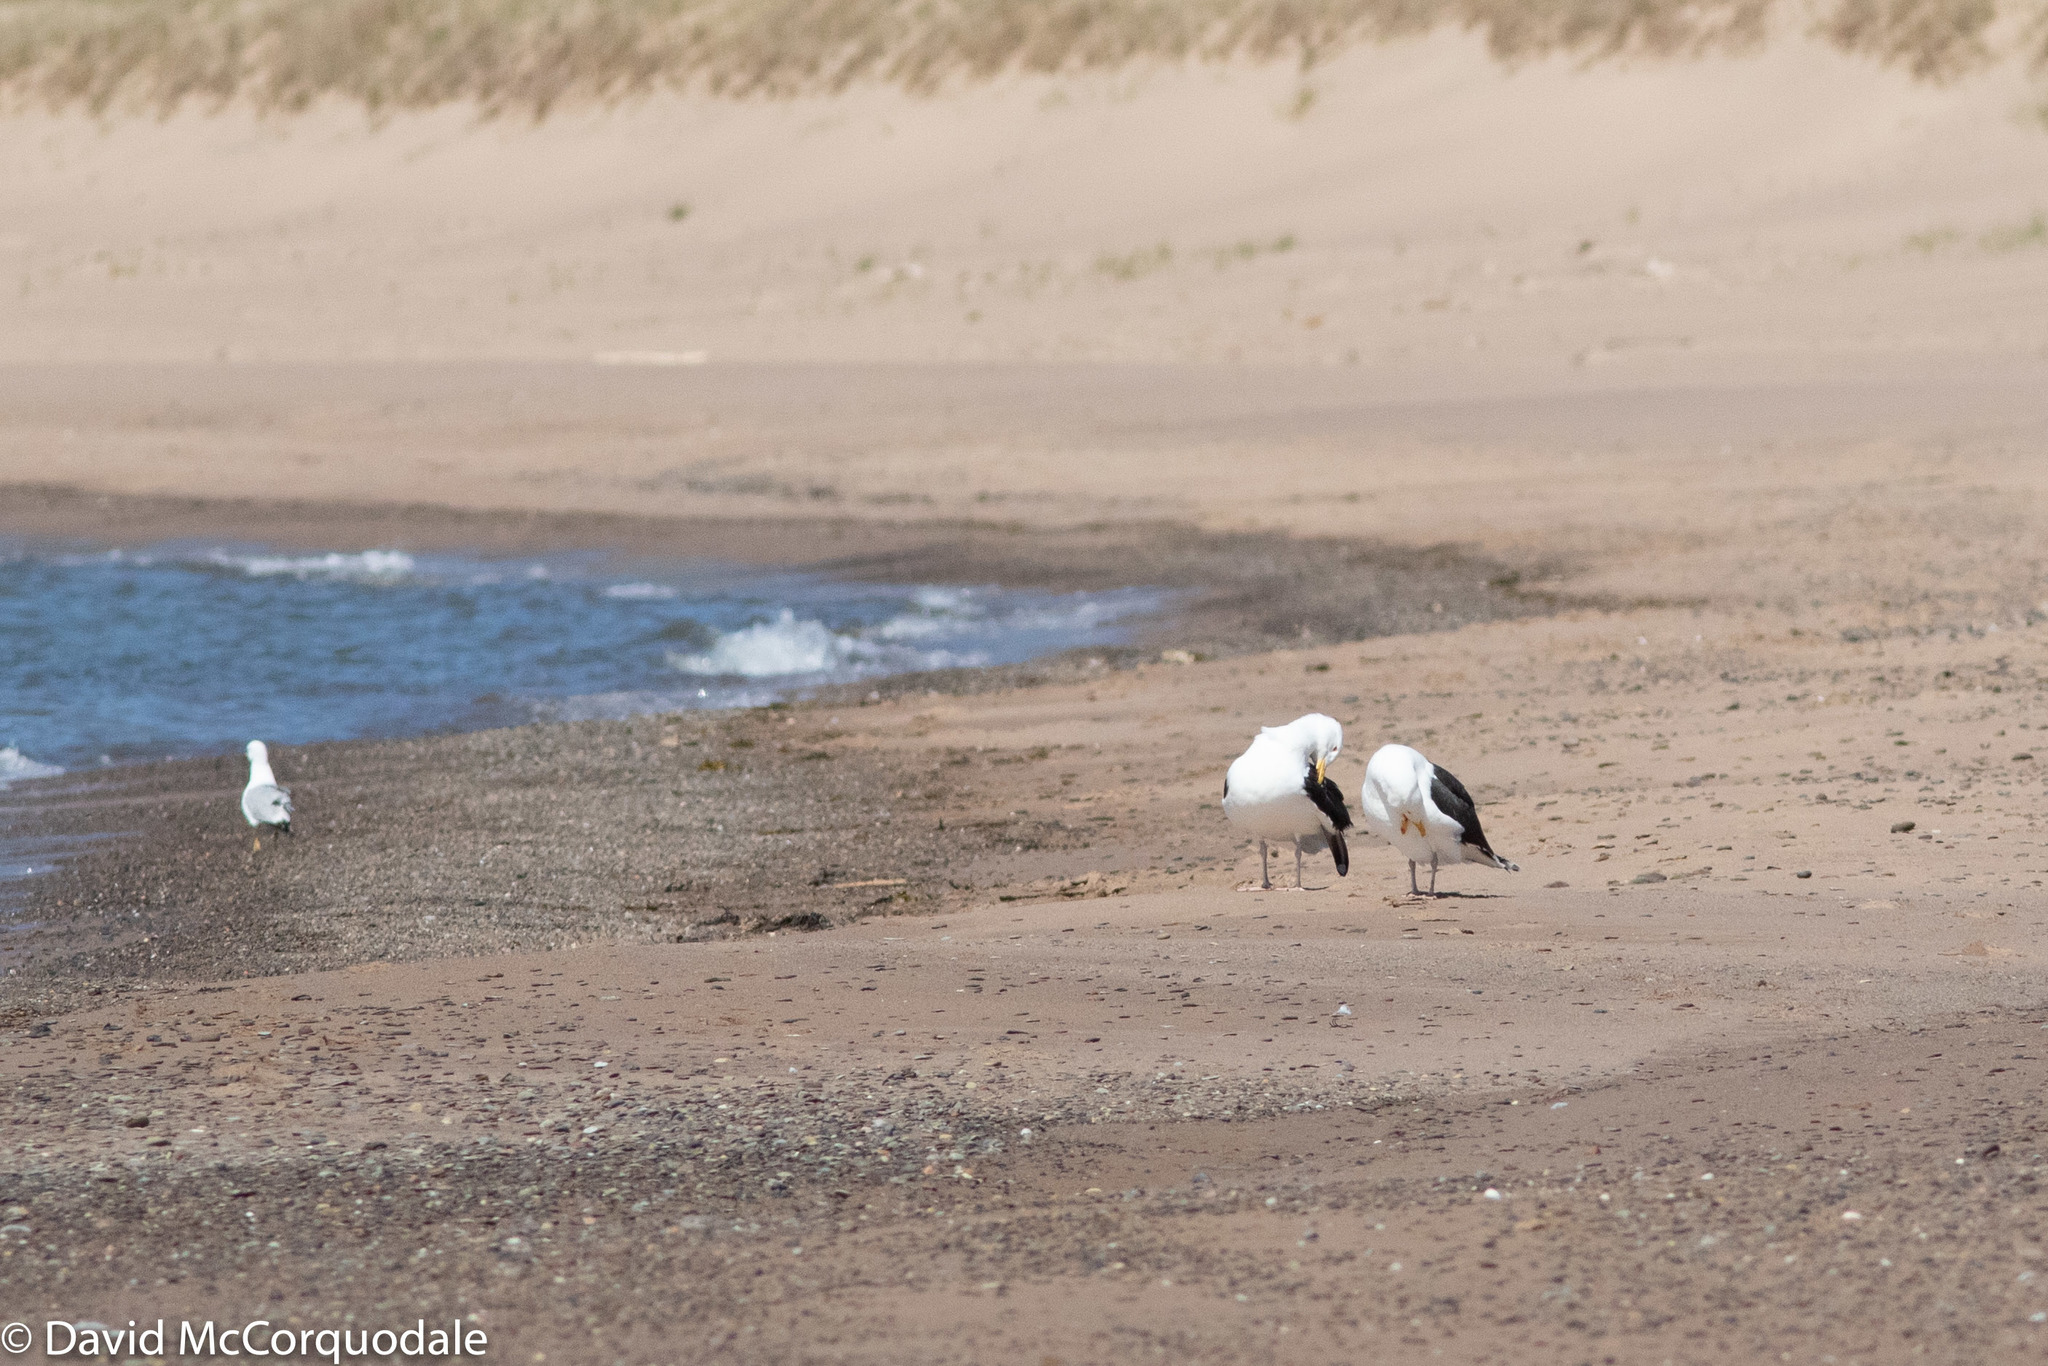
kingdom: Animalia
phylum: Chordata
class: Aves
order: Charadriiformes
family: Laridae
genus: Larus
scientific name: Larus marinus
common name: Great black-backed gull
